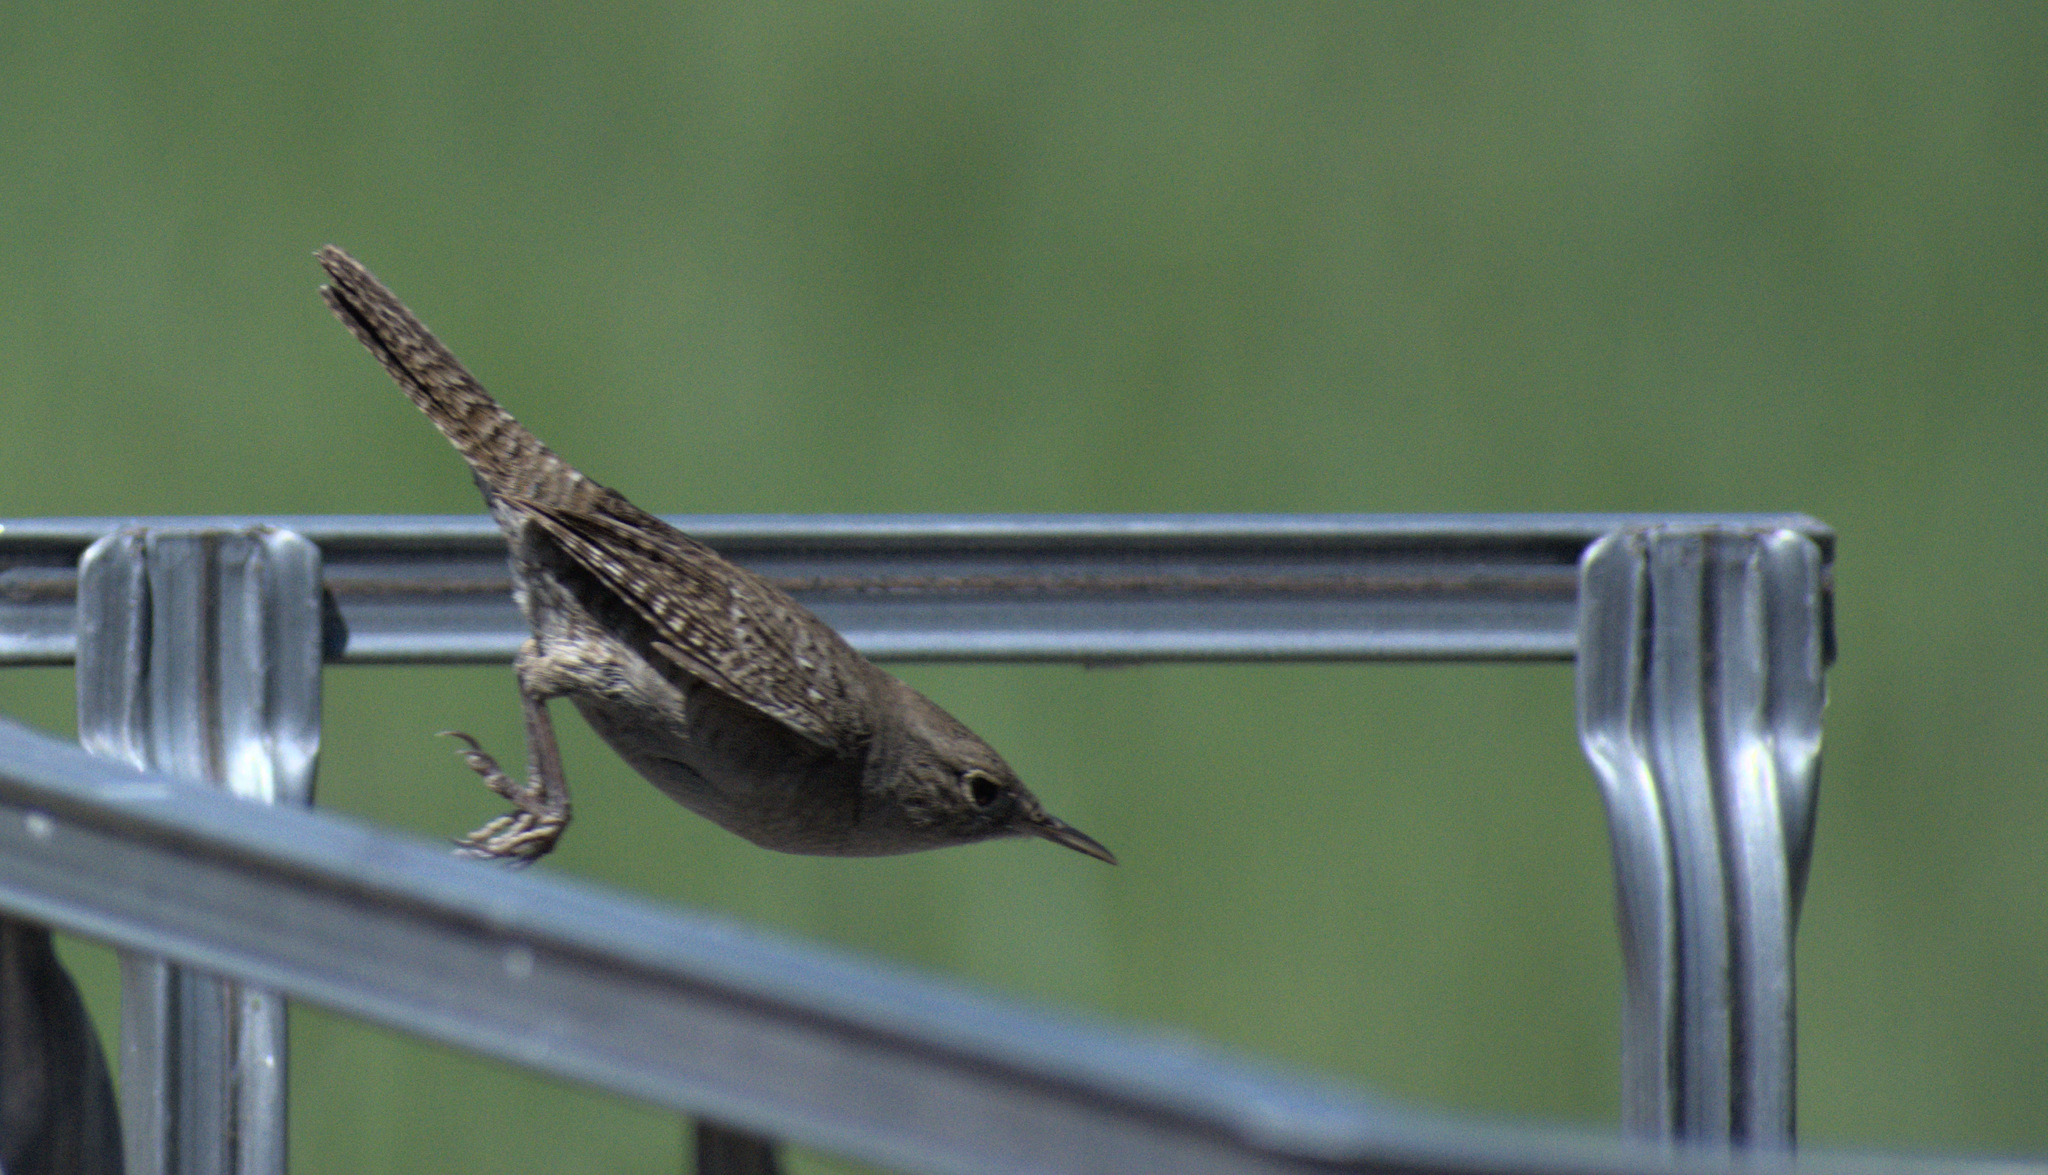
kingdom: Animalia
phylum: Chordata
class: Aves
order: Passeriformes
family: Troglodytidae
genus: Troglodytes
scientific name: Troglodytes aedon
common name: House wren
